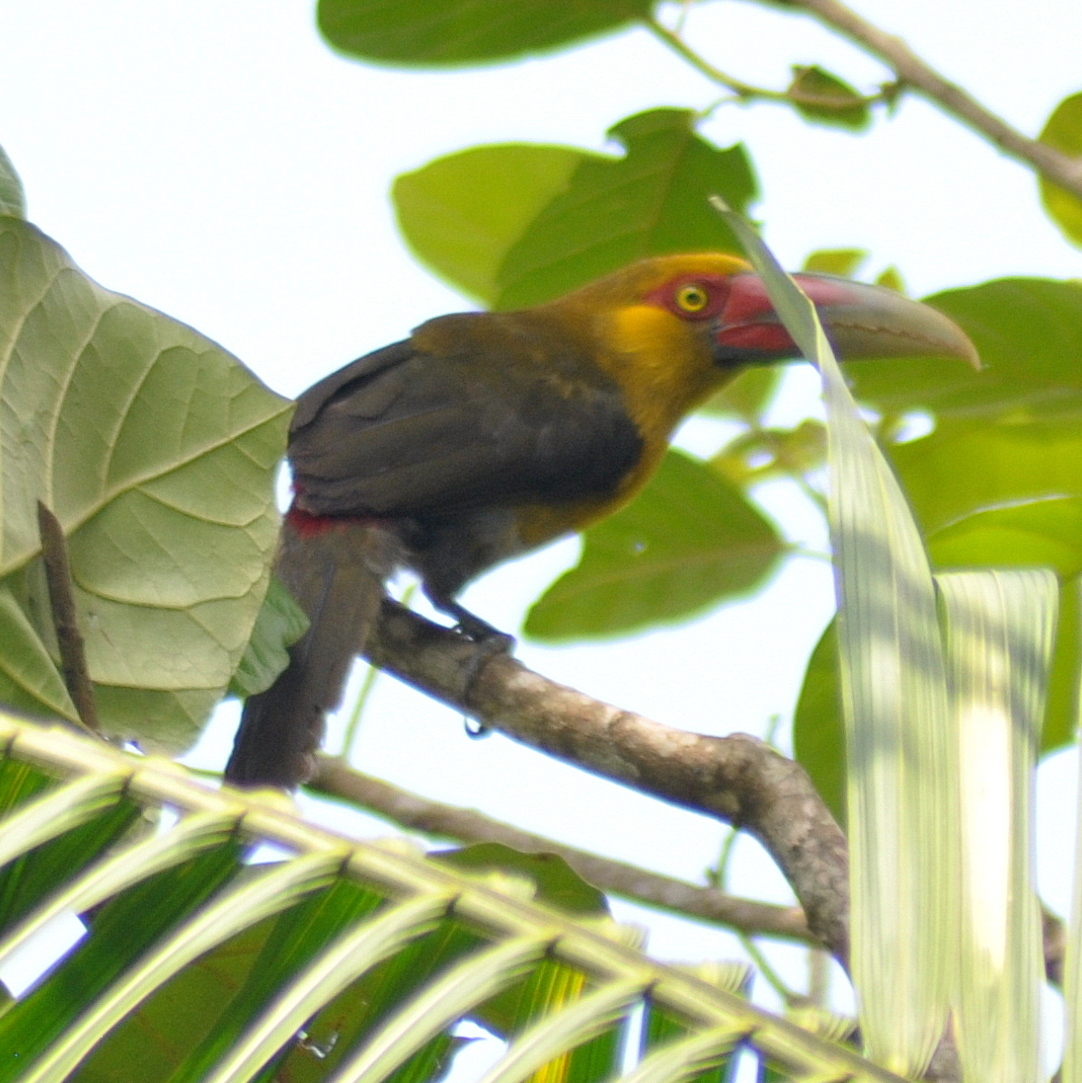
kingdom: Animalia
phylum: Chordata
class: Aves
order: Piciformes
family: Ramphastidae
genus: Pteroglossus
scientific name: Pteroglossus bailloni
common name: Saffron toucanet
